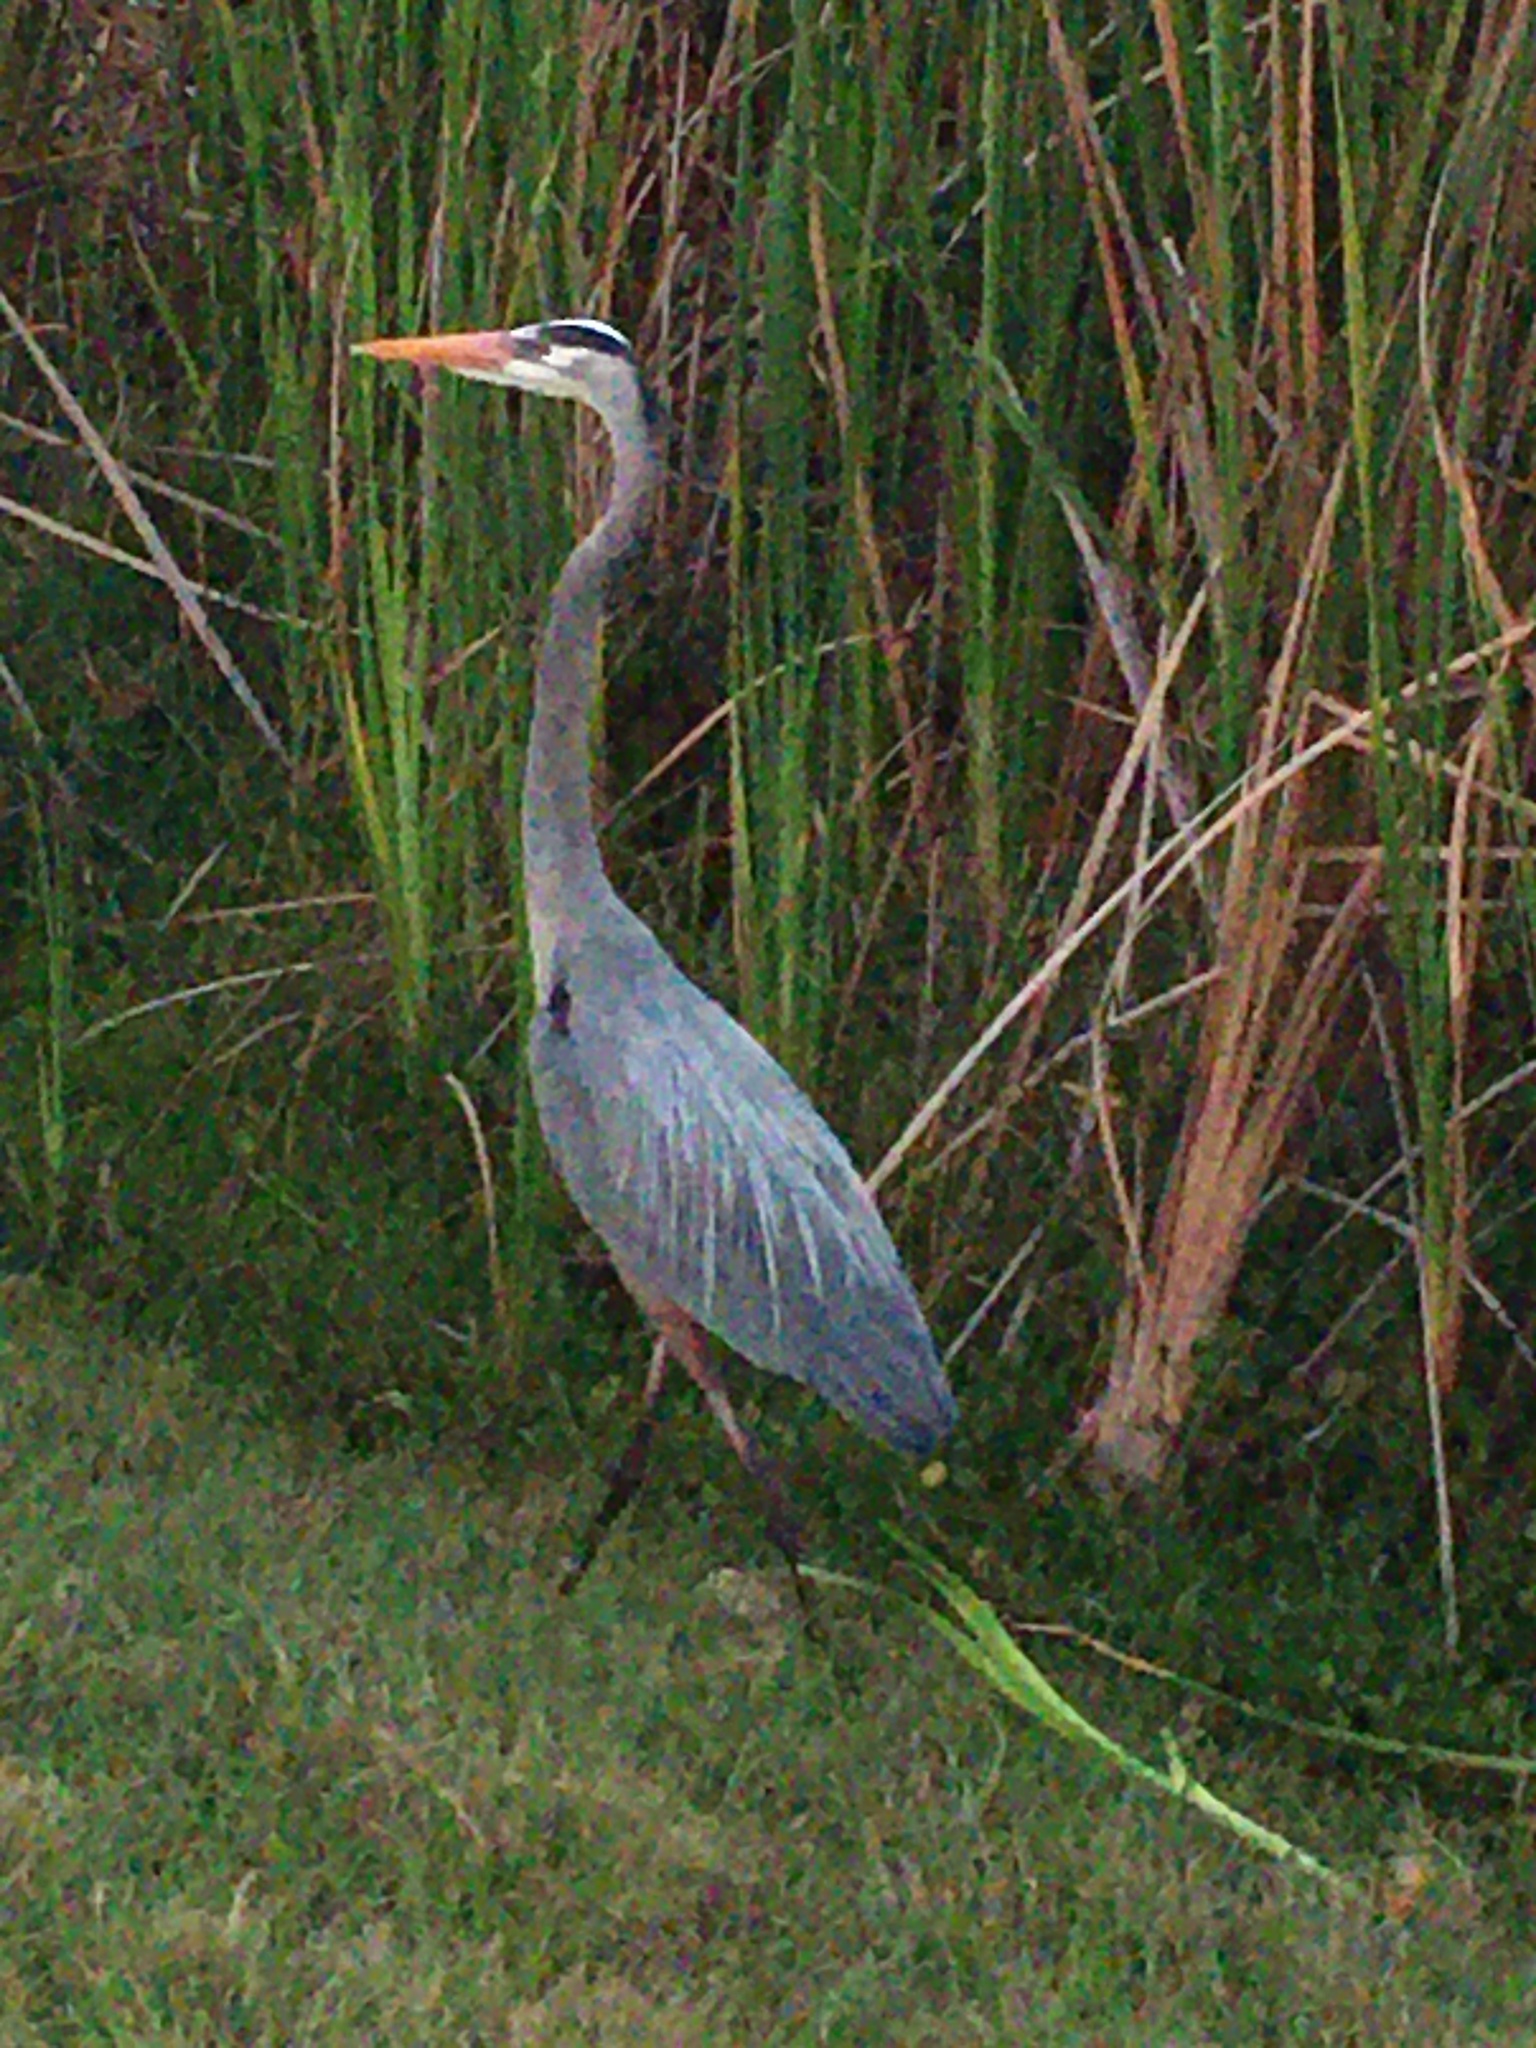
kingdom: Animalia
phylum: Chordata
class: Aves
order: Pelecaniformes
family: Ardeidae
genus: Ardea
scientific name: Ardea herodias
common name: Great blue heron
